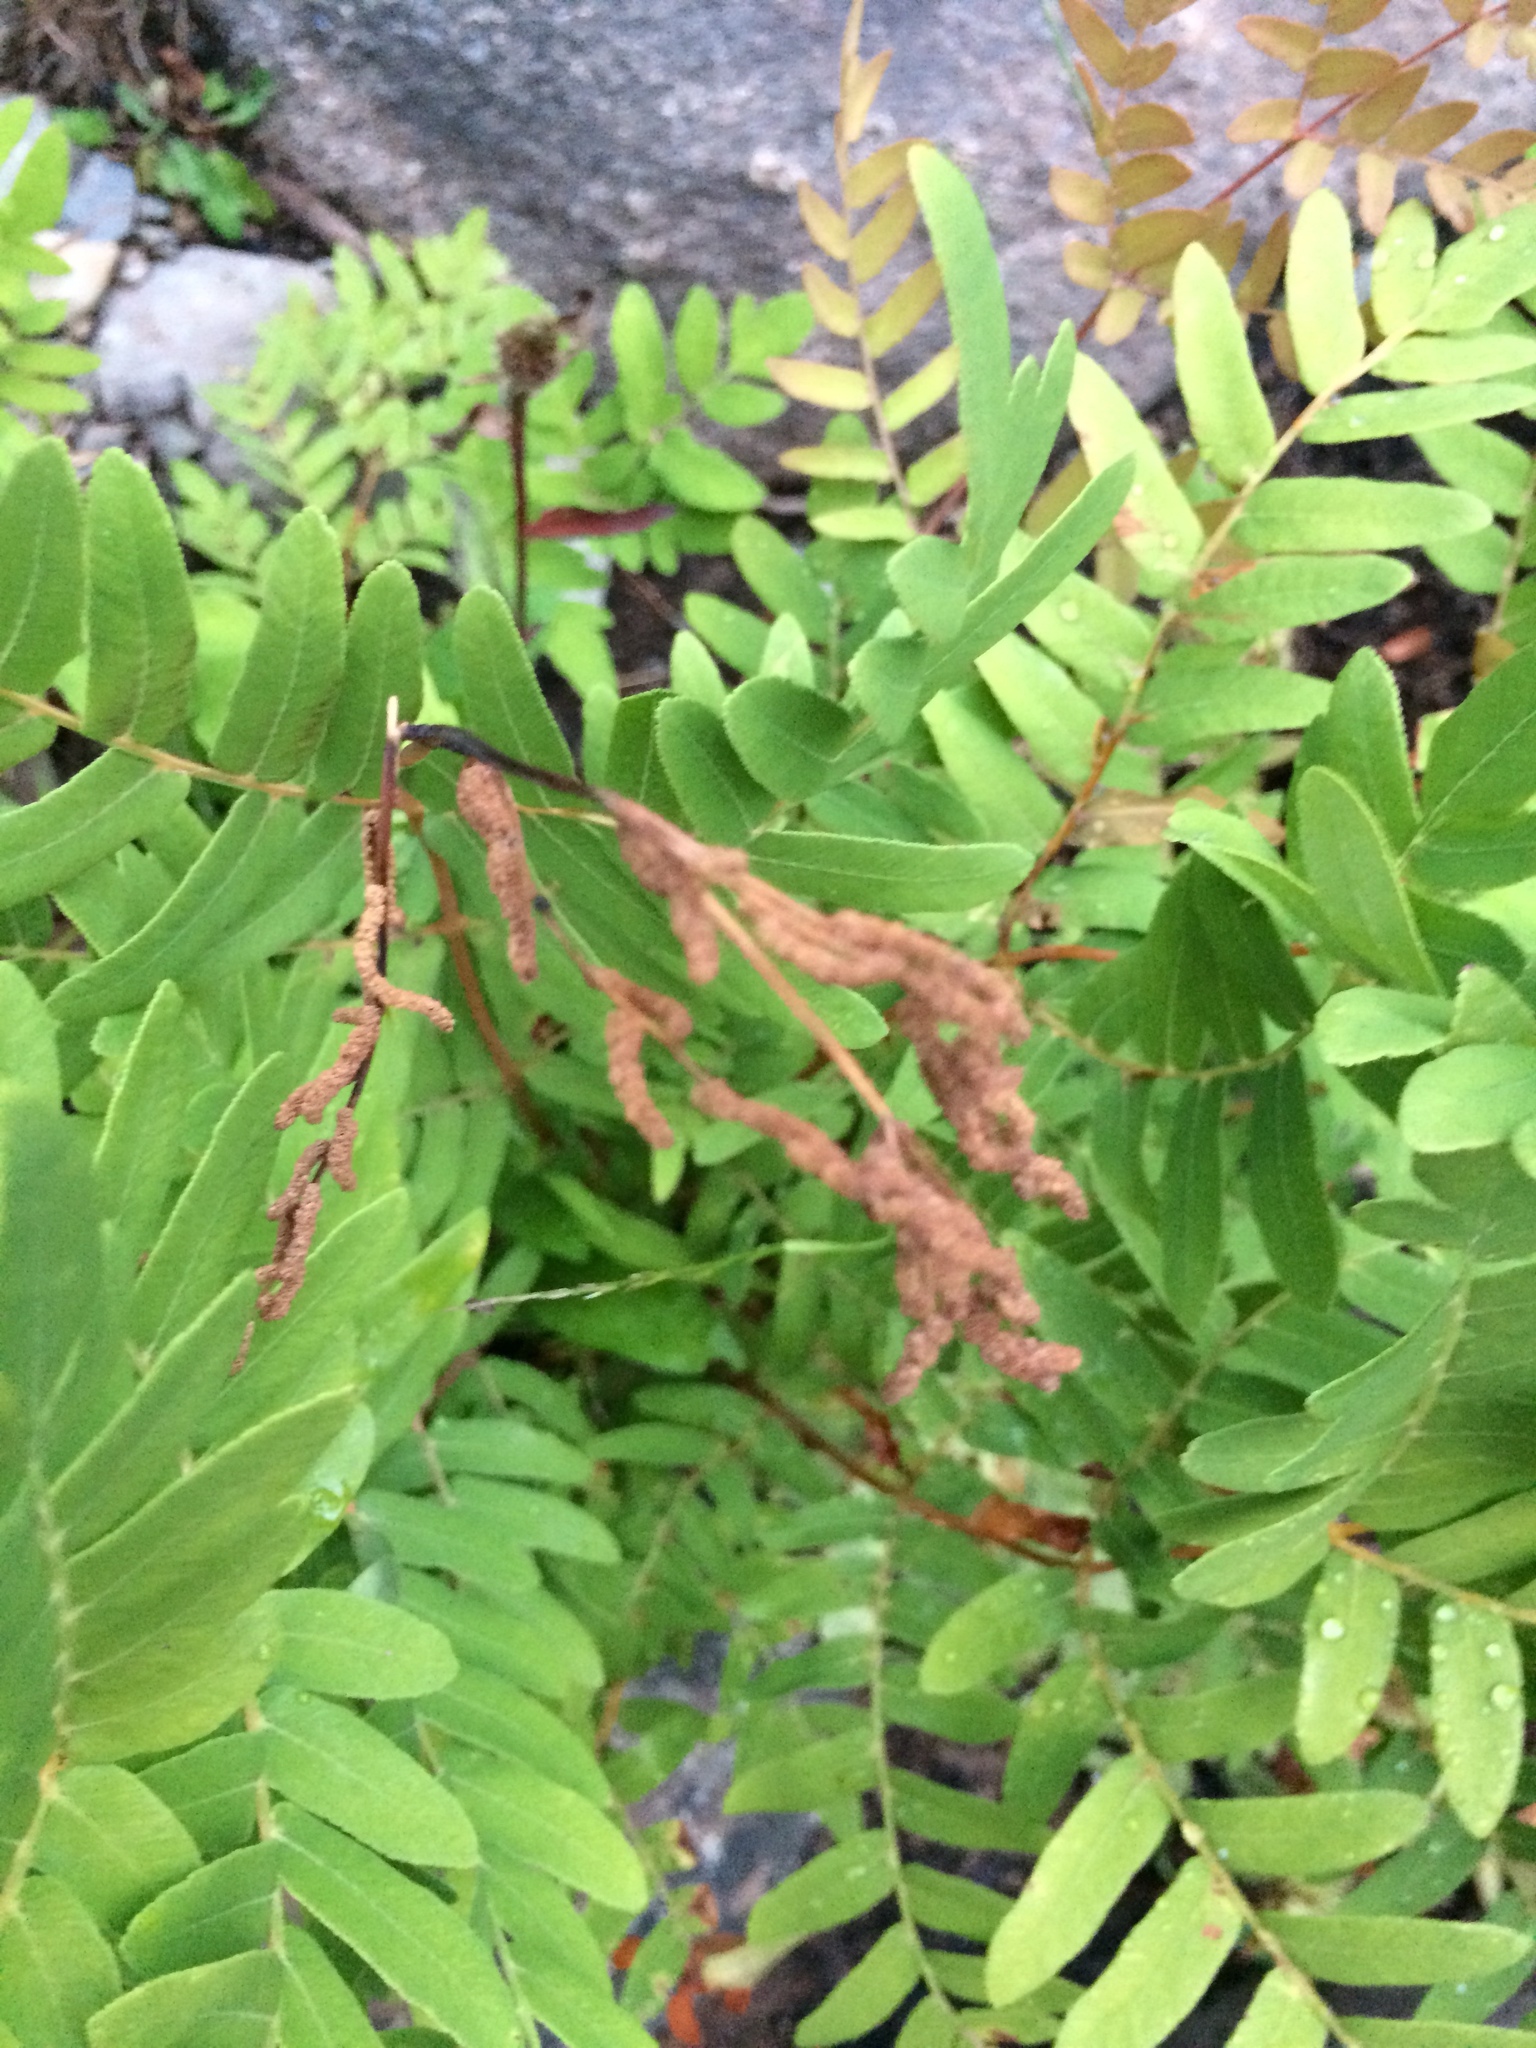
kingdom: Plantae
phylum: Tracheophyta
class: Polypodiopsida
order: Osmundales
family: Osmundaceae
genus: Osmunda
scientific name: Osmunda spectabilis
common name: American royal fern
